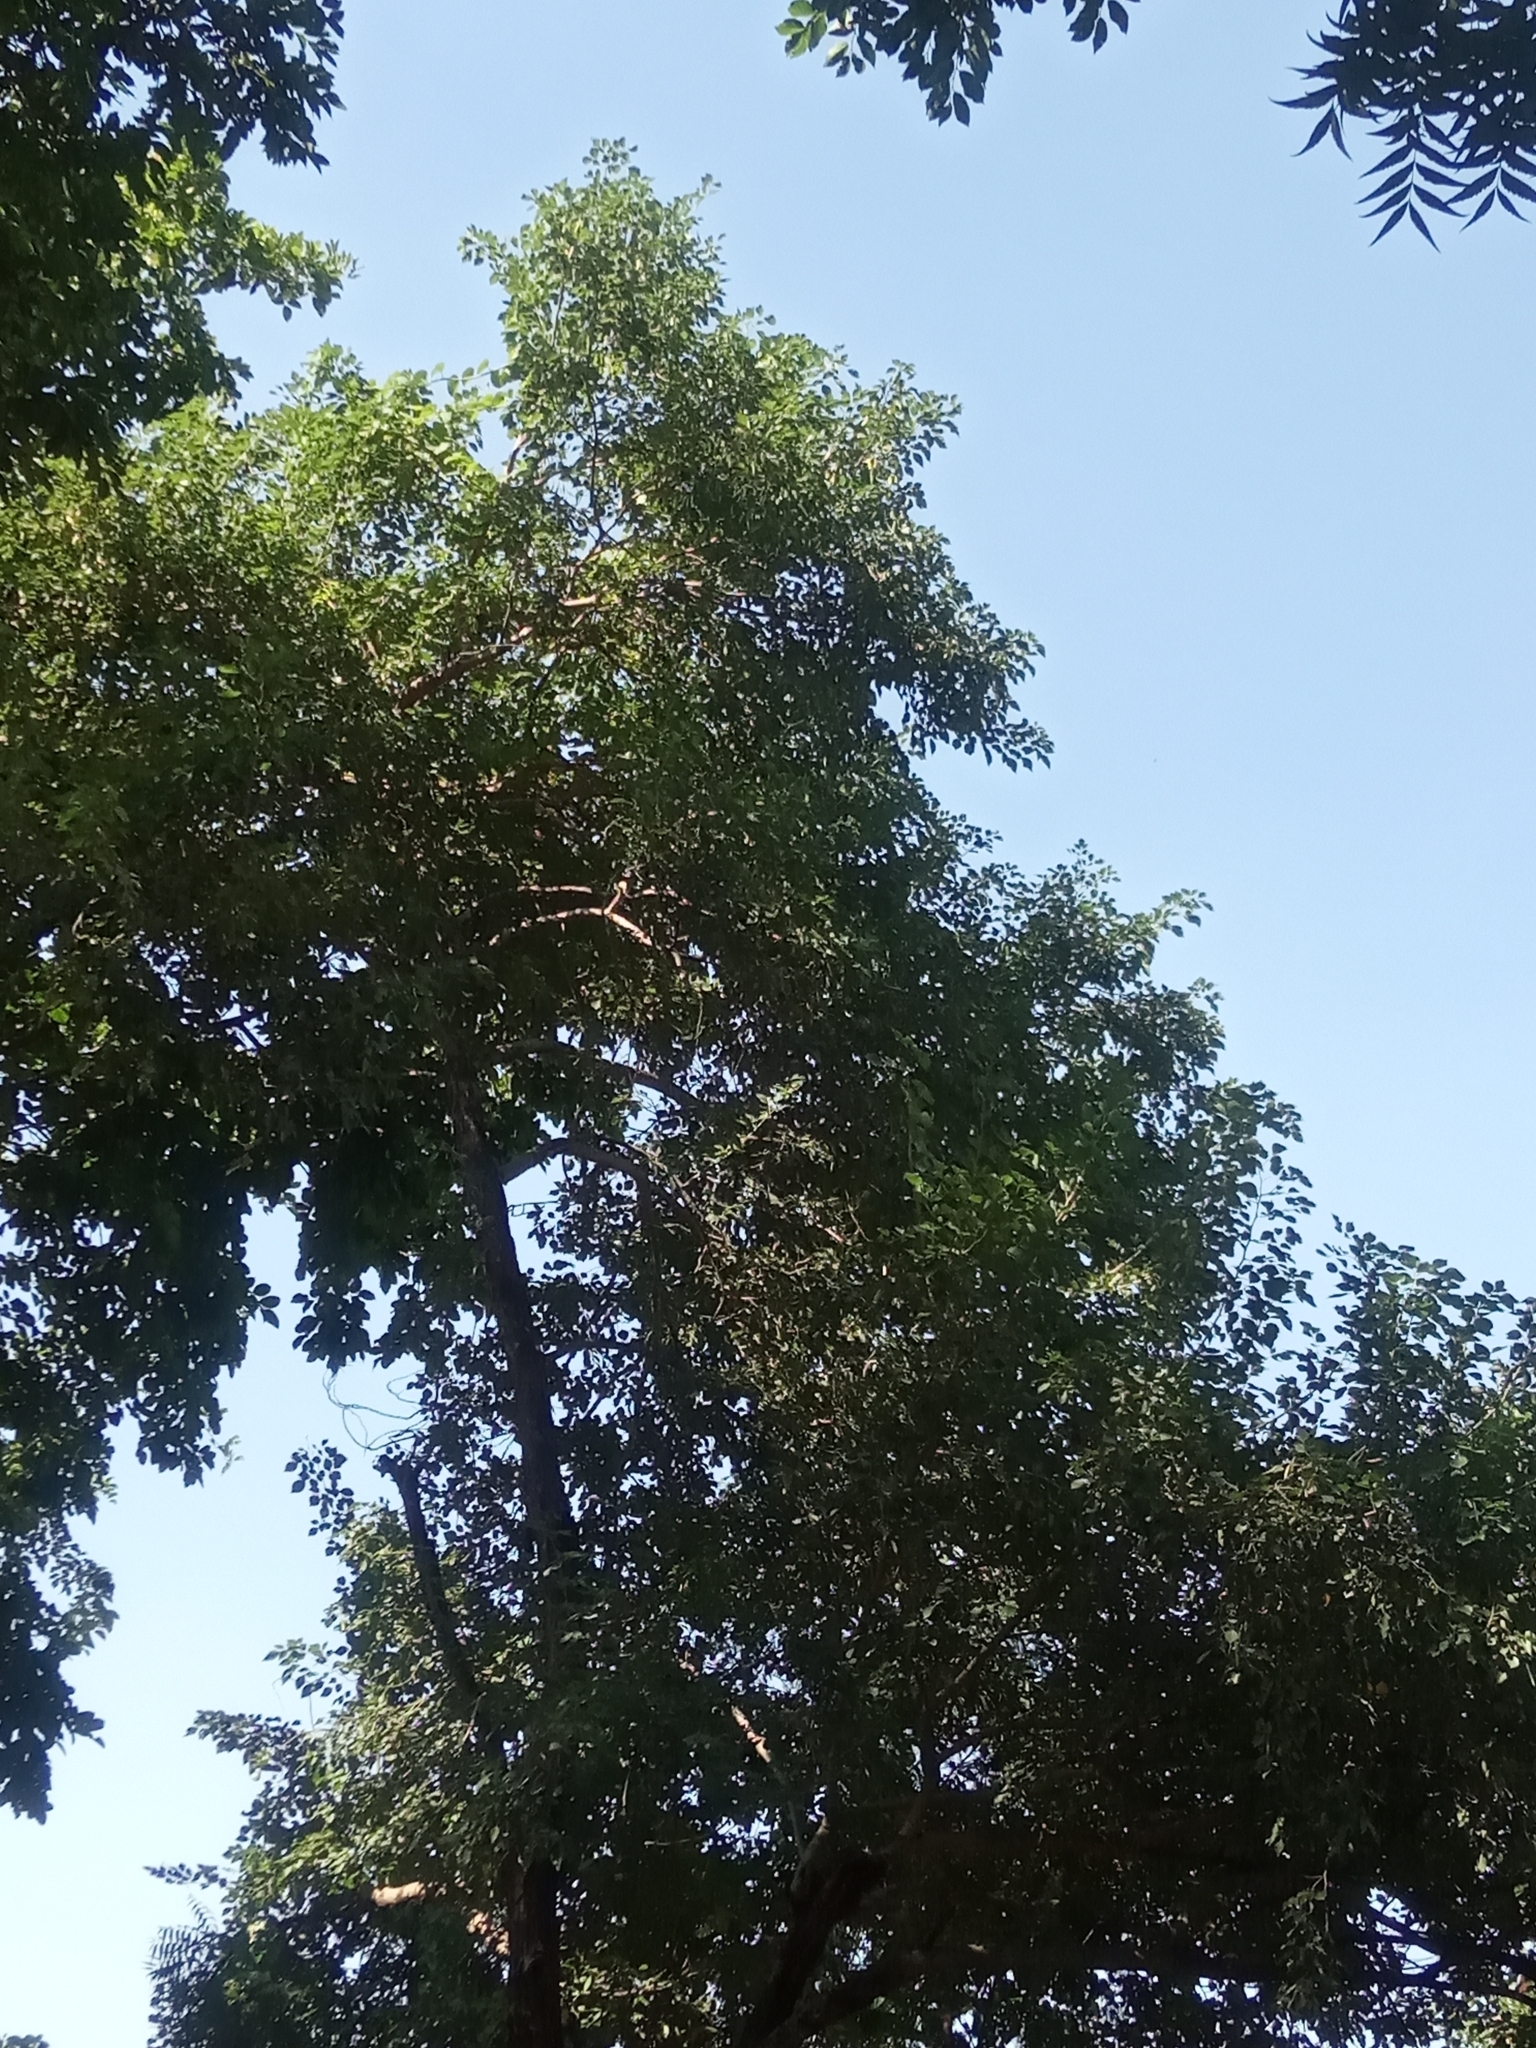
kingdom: Plantae
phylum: Tracheophyta
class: Magnoliopsida
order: Fabales
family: Fabaceae
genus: Dalbergia
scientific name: Dalbergia sissoo
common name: Indian rosewood
